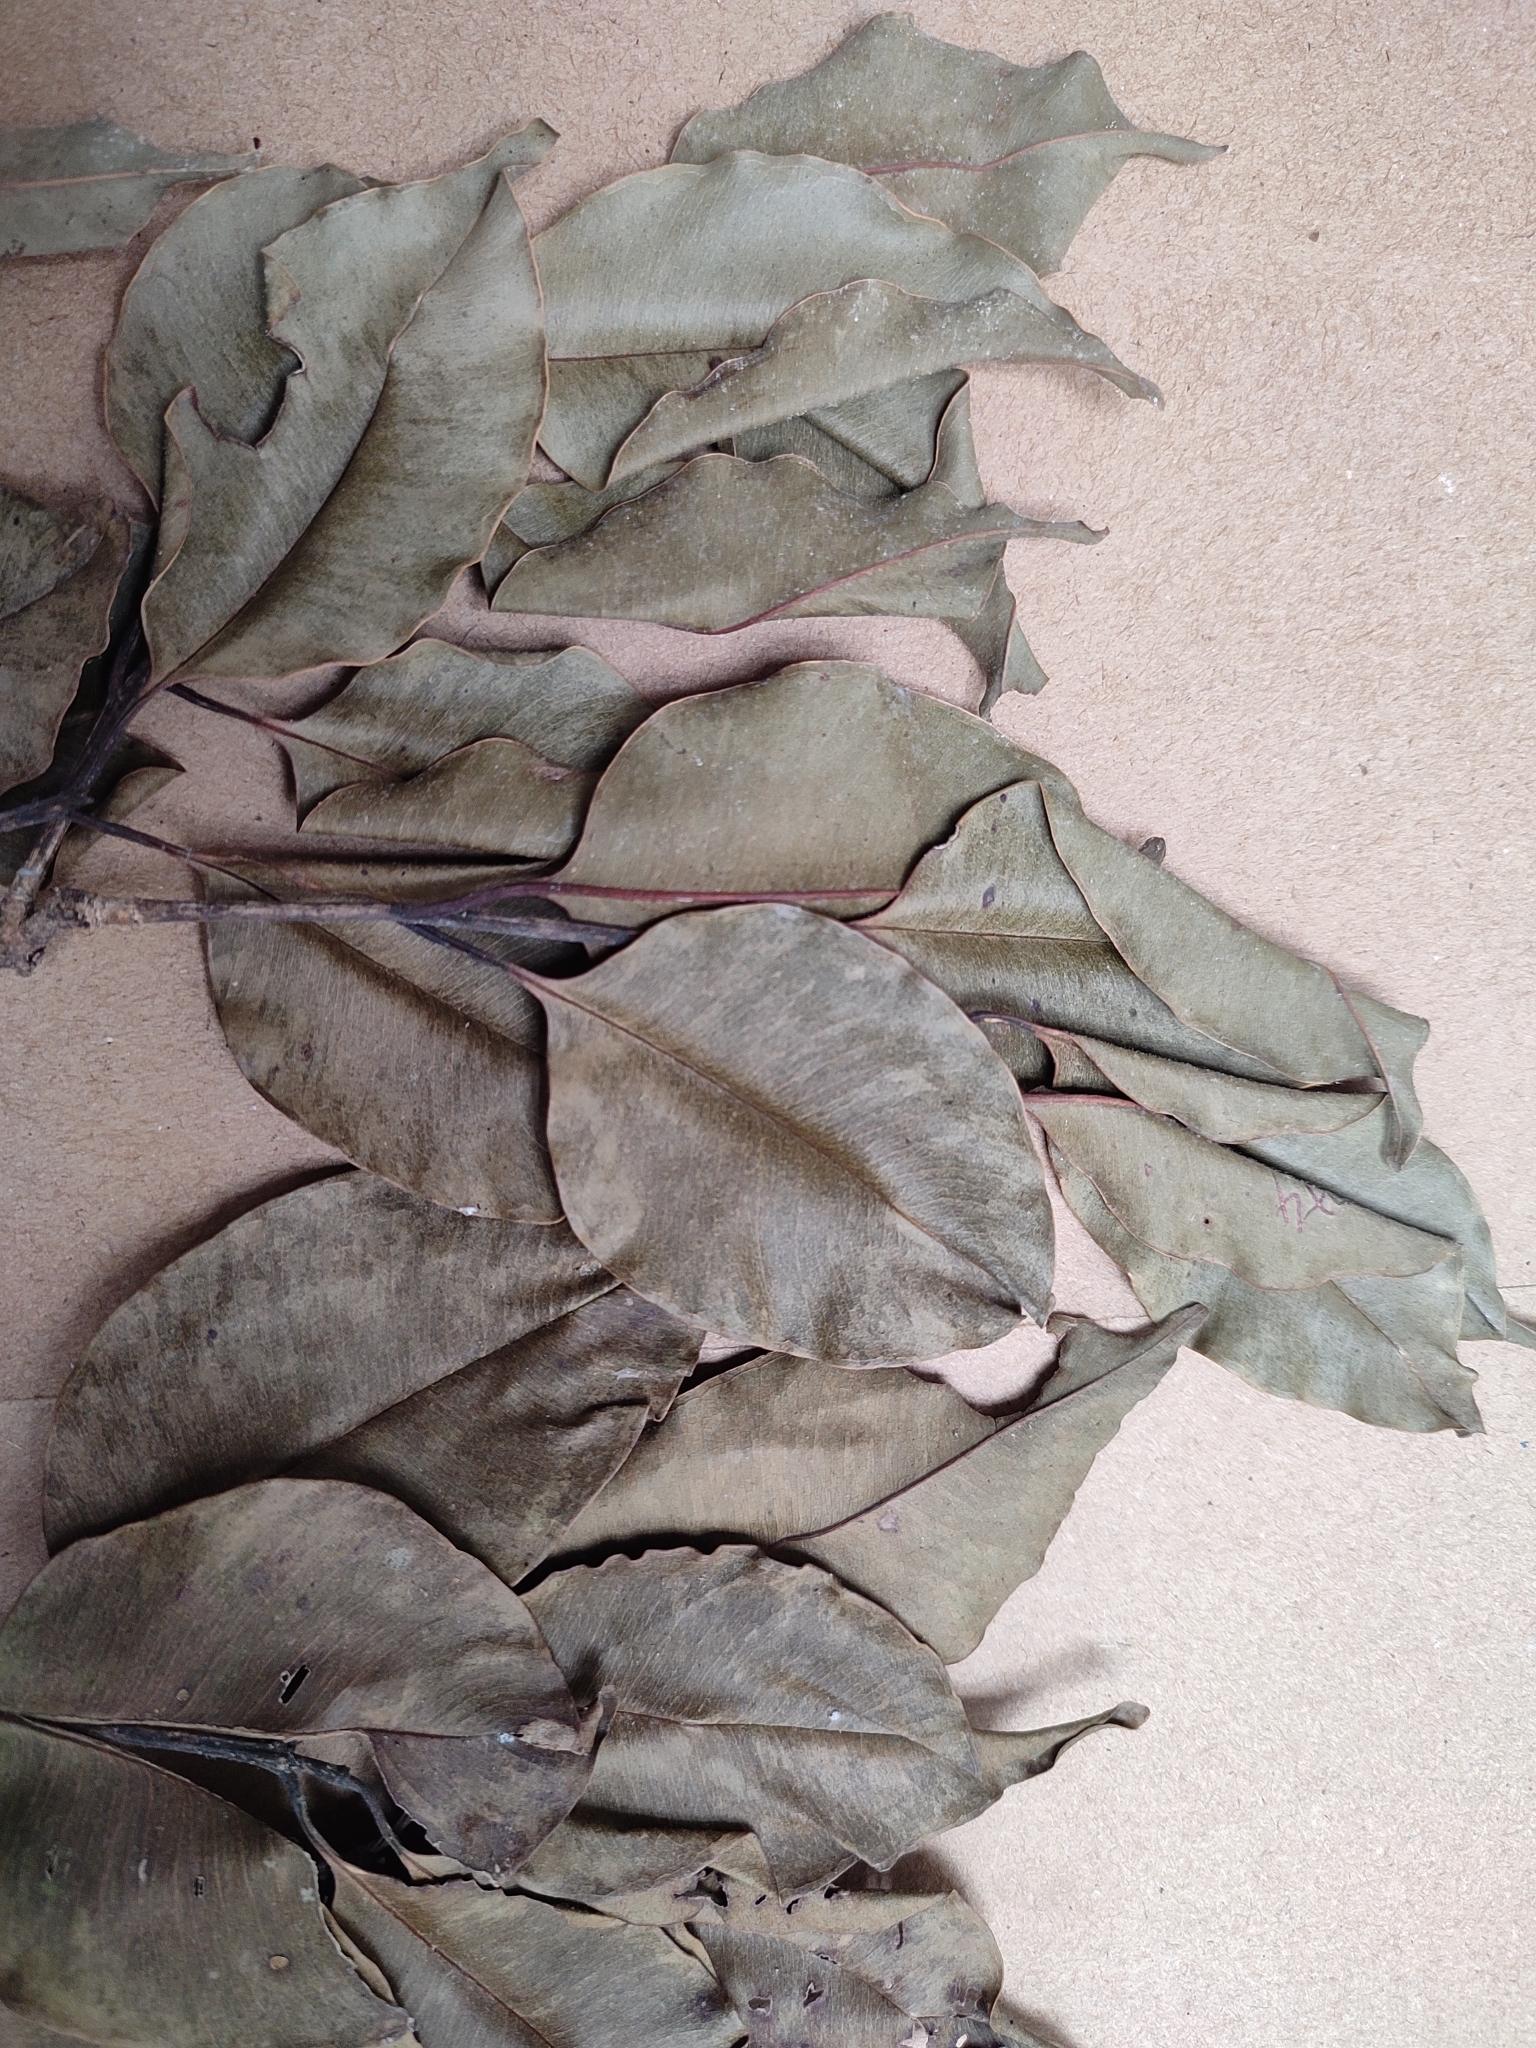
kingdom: Plantae
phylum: Tracheophyta
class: Magnoliopsida
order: Myrtales
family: Myrtaceae
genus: Syzygium
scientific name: Syzygium densiflorum
